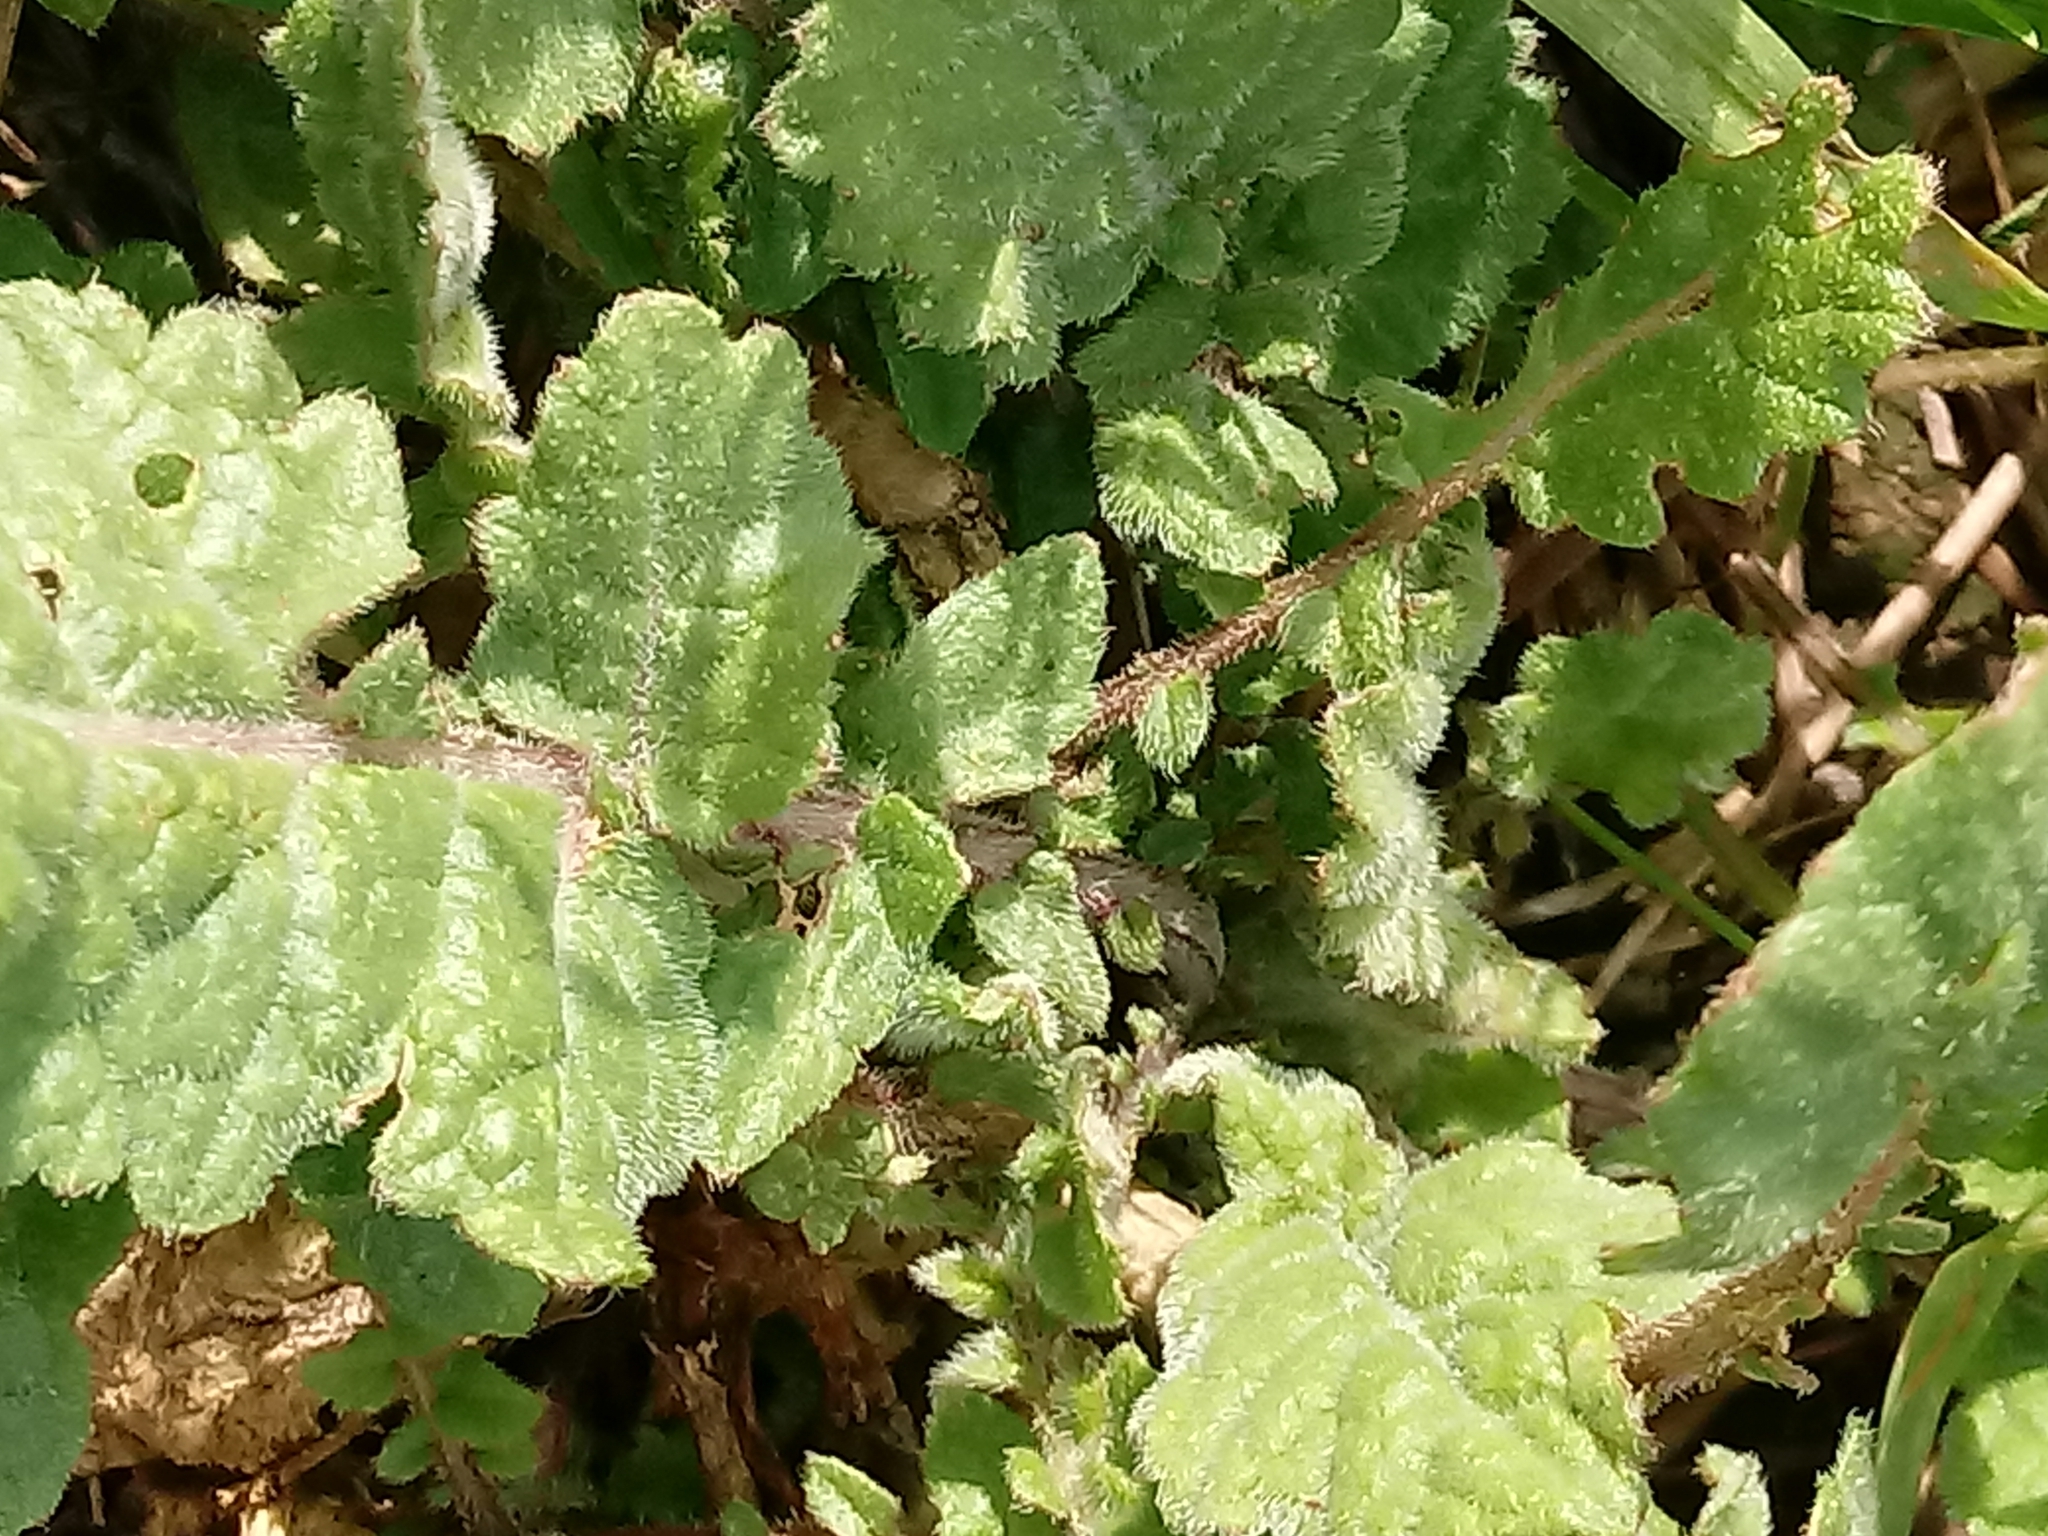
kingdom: Plantae
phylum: Tracheophyta
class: Magnoliopsida
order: Brassicales
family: Brassicaceae
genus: Hirschfeldia
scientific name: Hirschfeldia incana
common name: Hoary mustard
